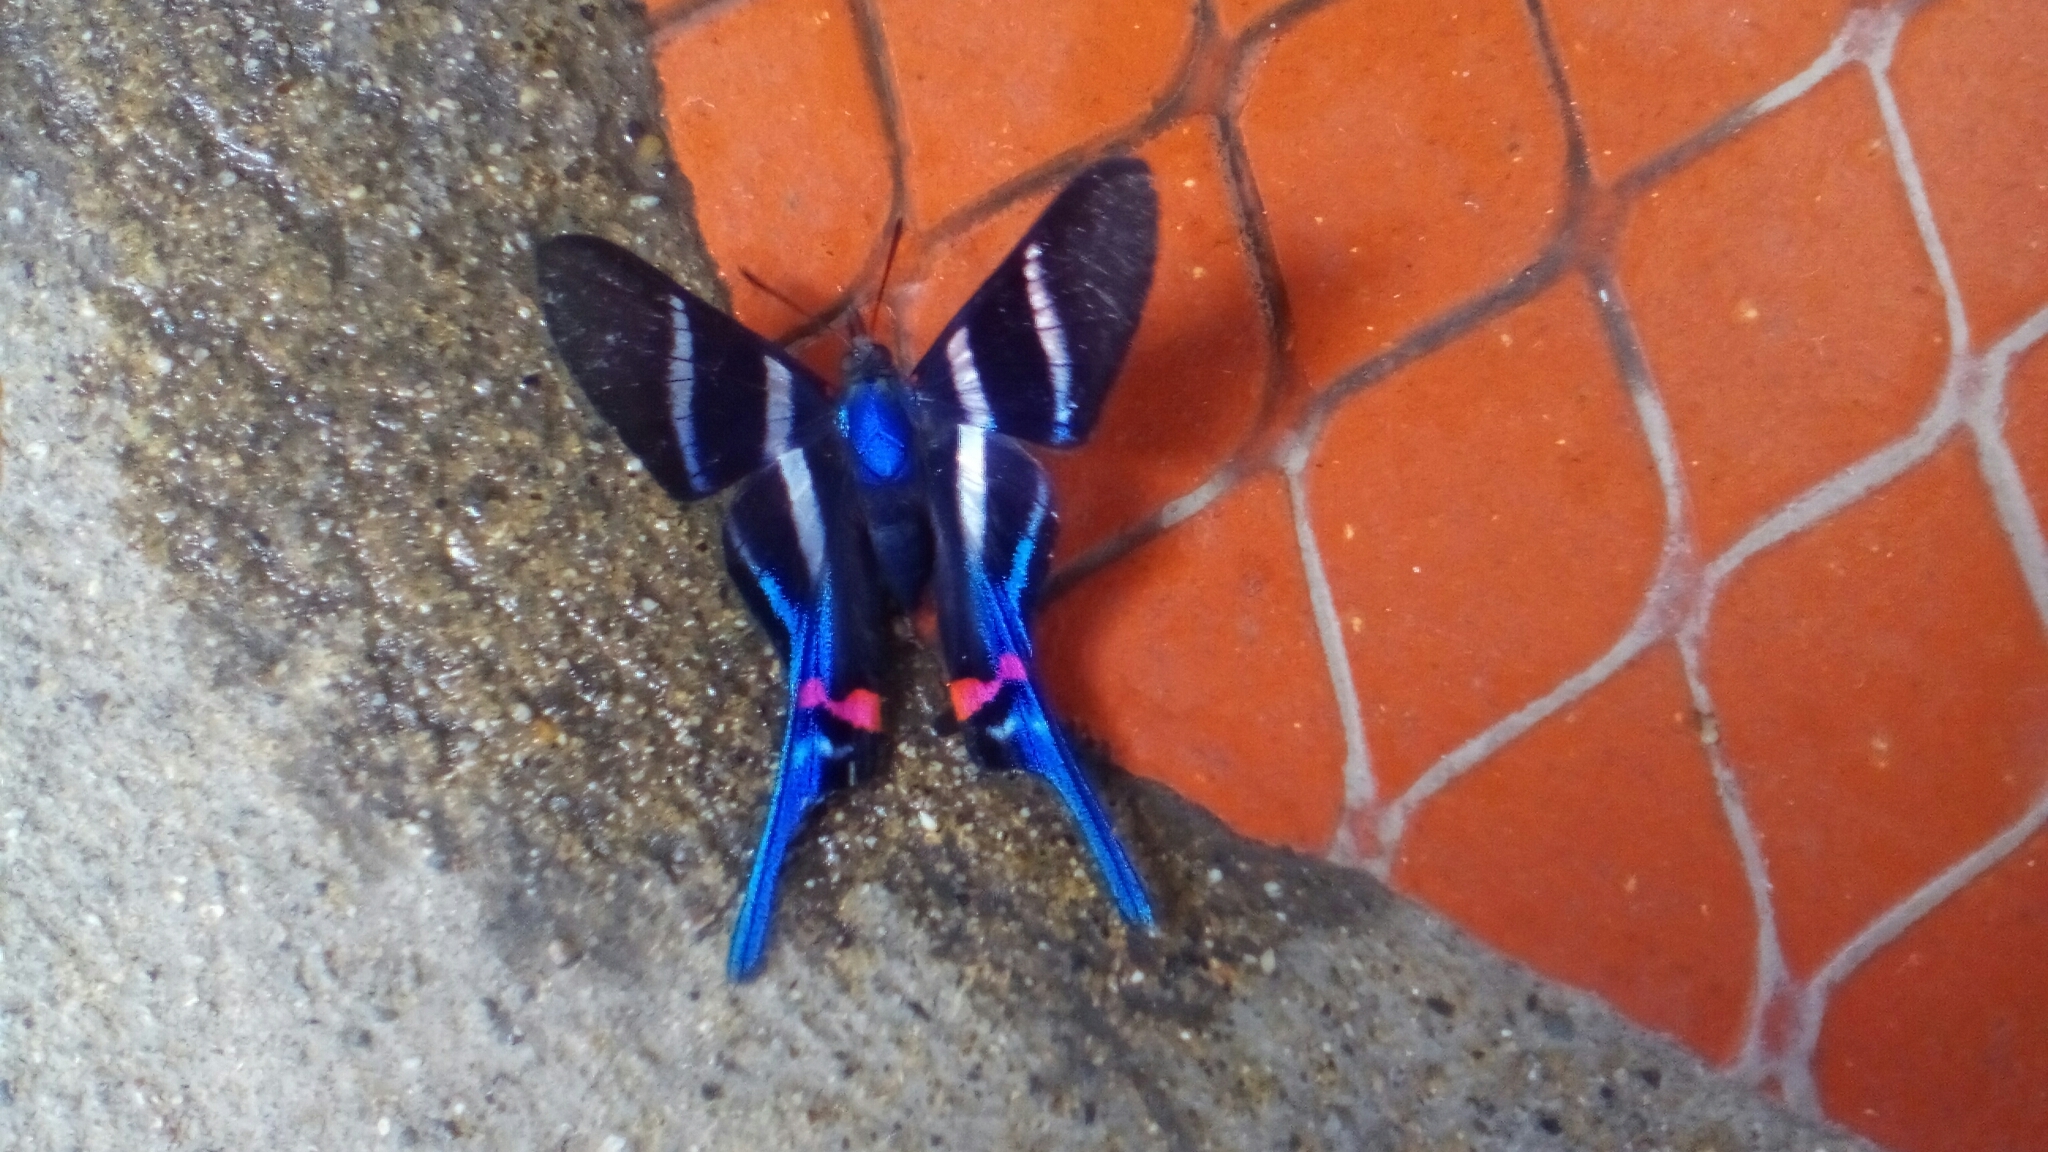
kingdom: Animalia
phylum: Arthropoda
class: Insecta
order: Lepidoptera
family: Riodinidae
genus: Rhetus
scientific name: Rhetus arcius
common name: Long-tailed metalmark
